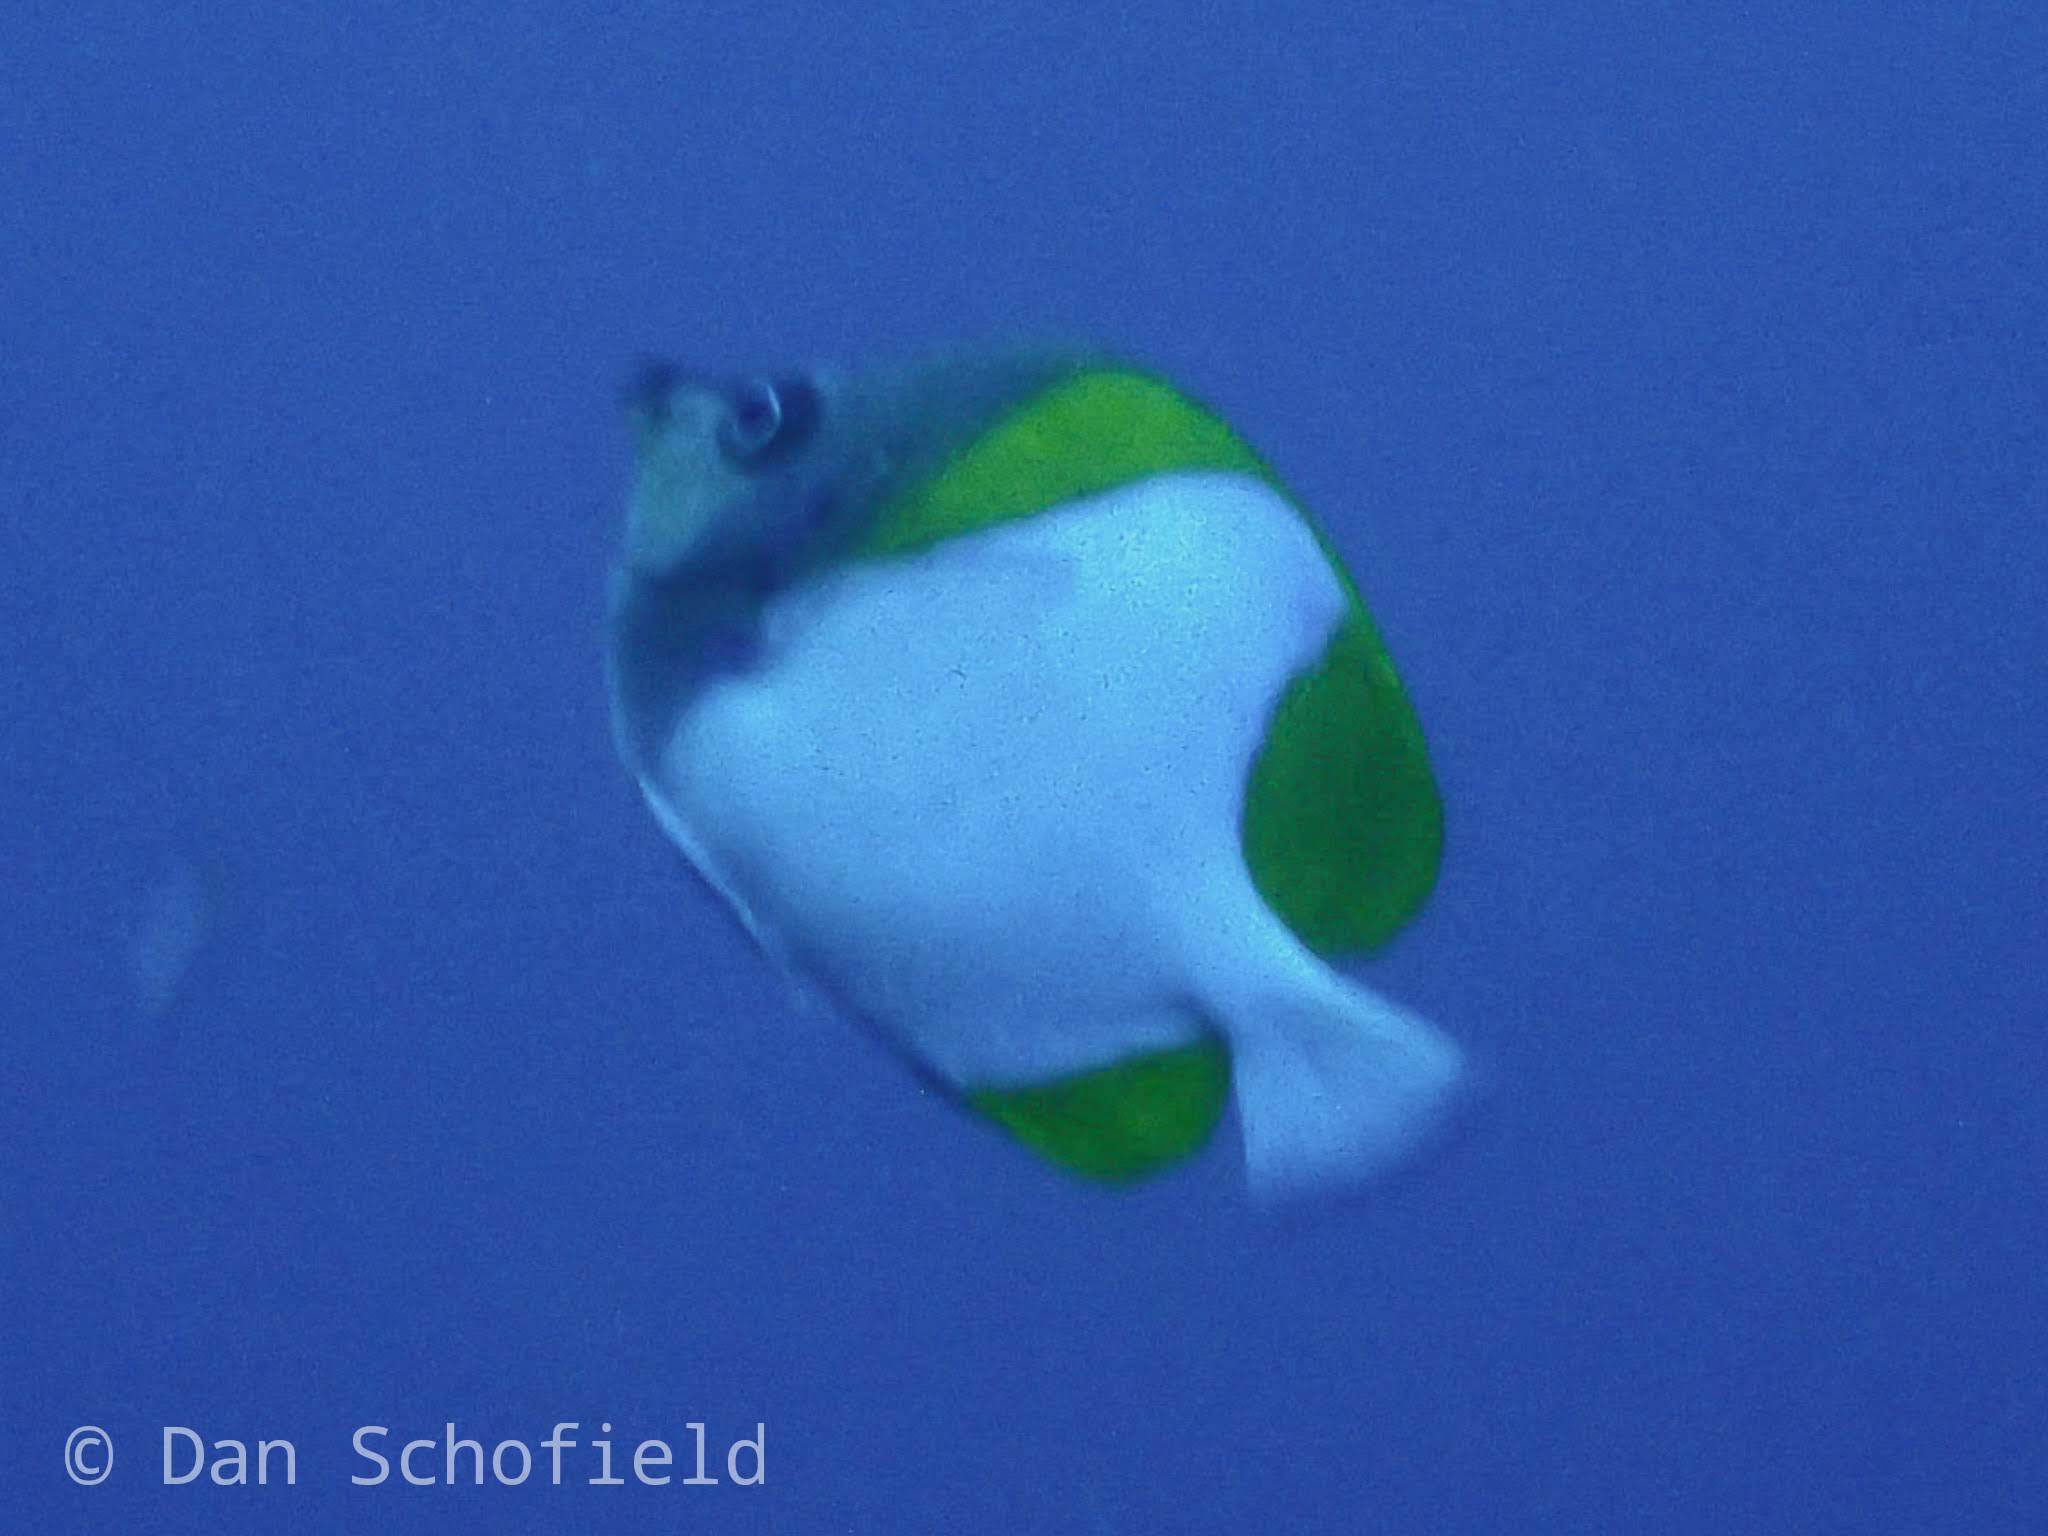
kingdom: Animalia
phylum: Chordata
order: Perciformes
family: Chaetodontidae
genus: Hemitaurichthys
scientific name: Hemitaurichthys polylepis
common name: Brushytoothed butterflyfish
